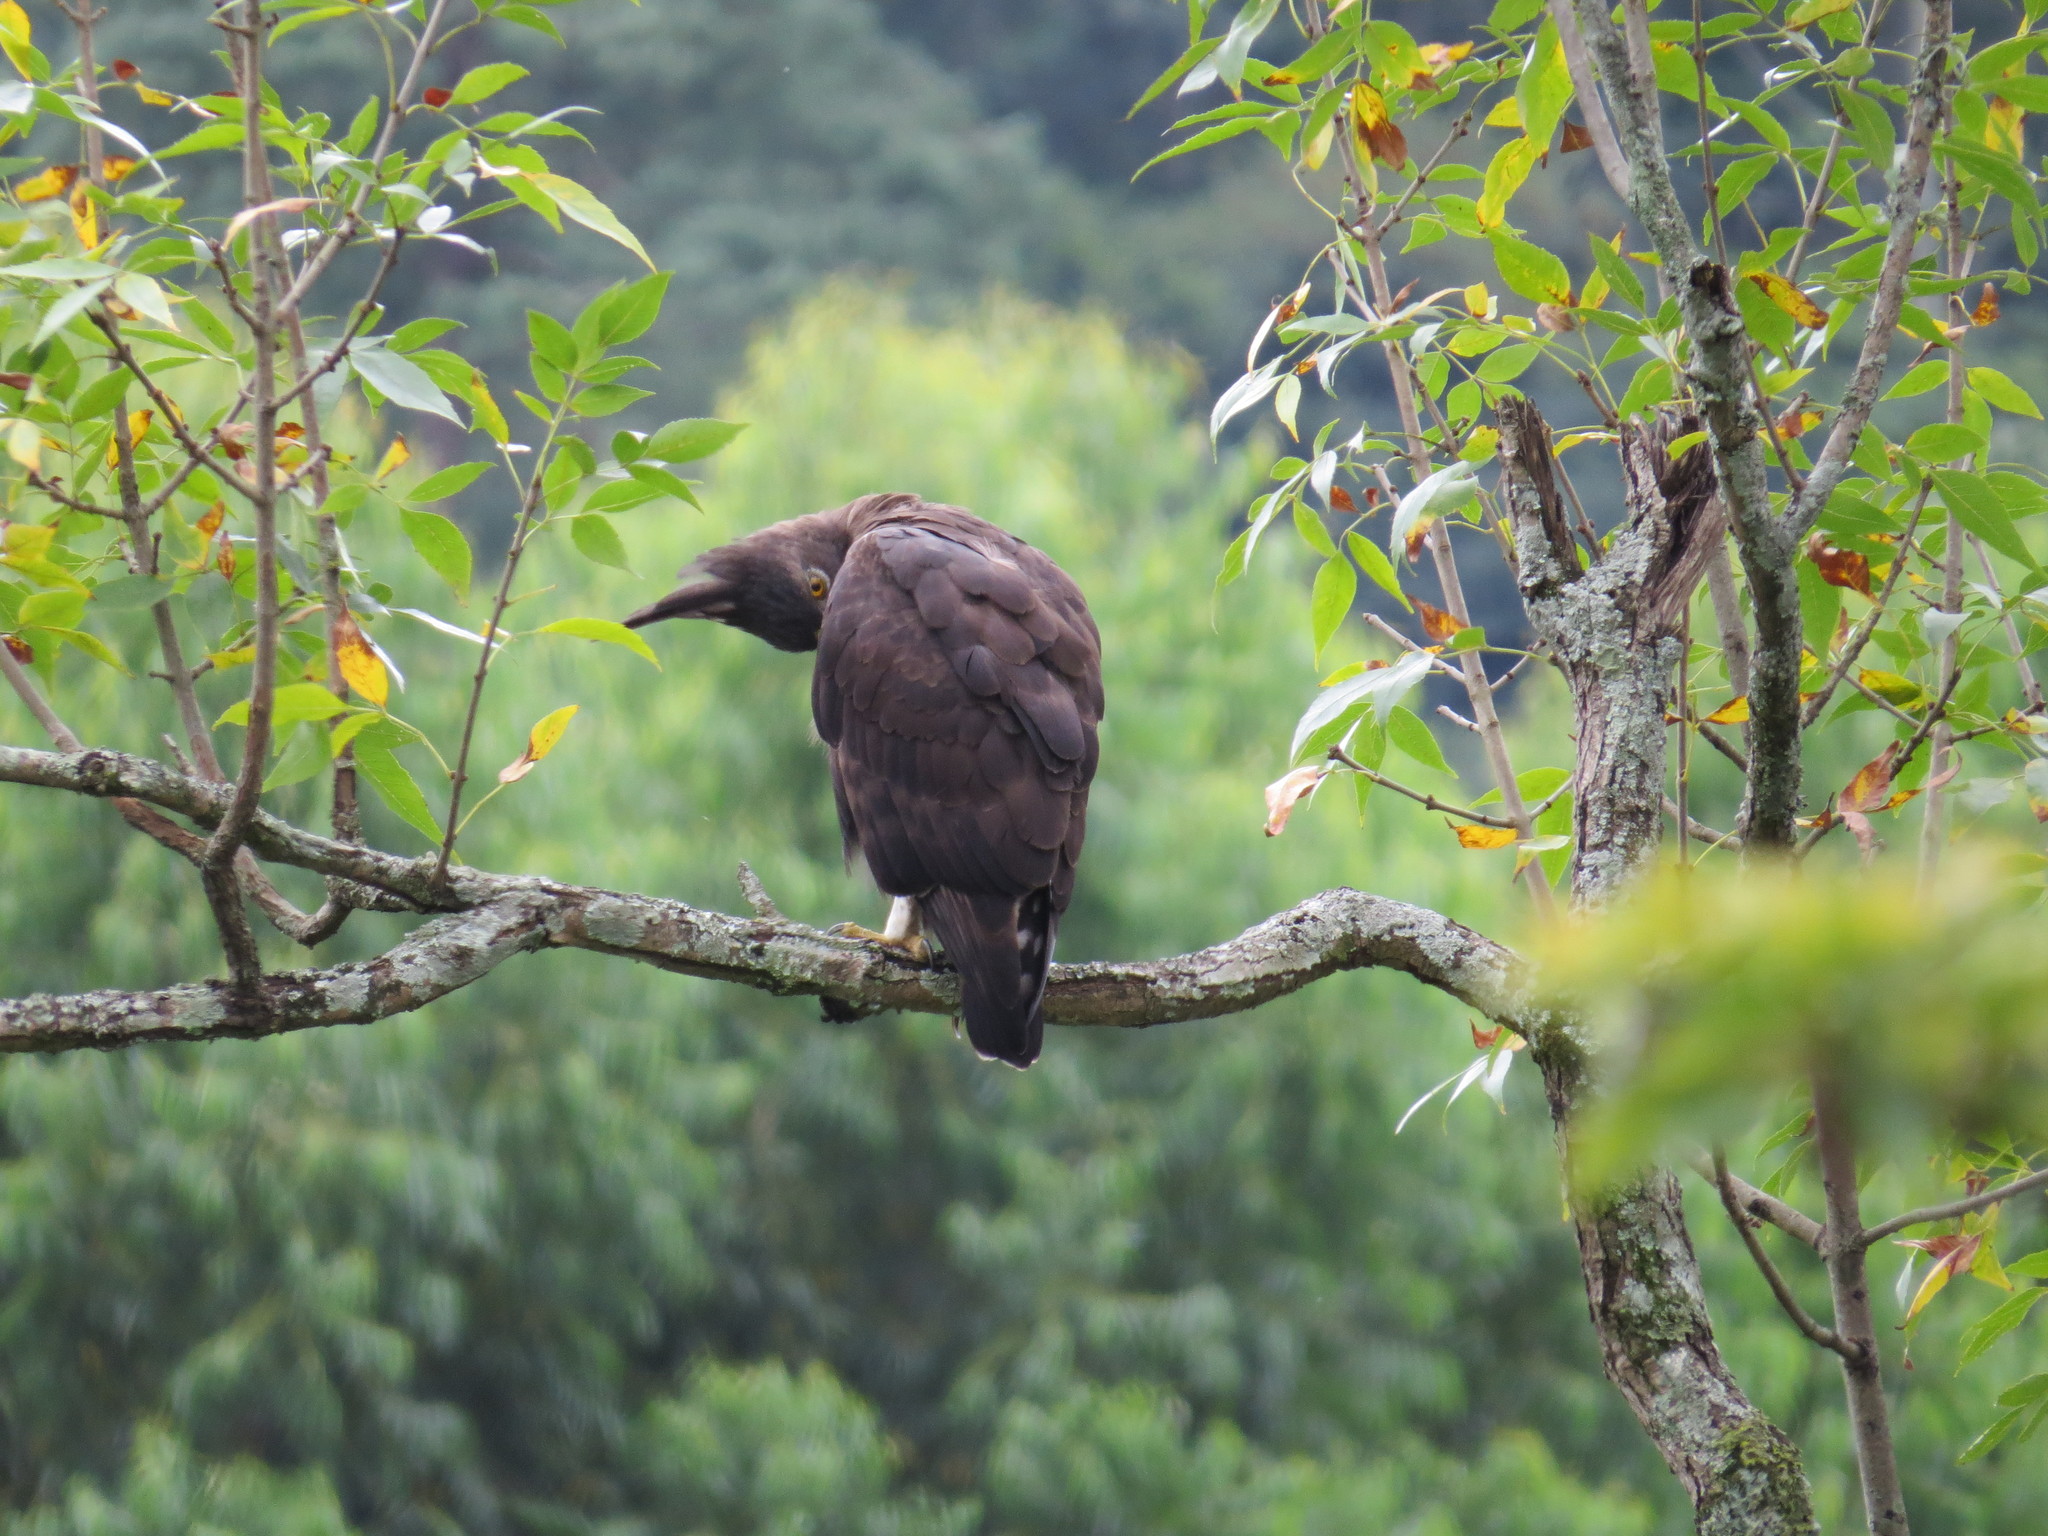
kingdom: Animalia
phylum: Chordata
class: Aves
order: Accipitriformes
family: Accipitridae
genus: Lophaetus
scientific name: Lophaetus occipitalis
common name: Long-crested eagle
